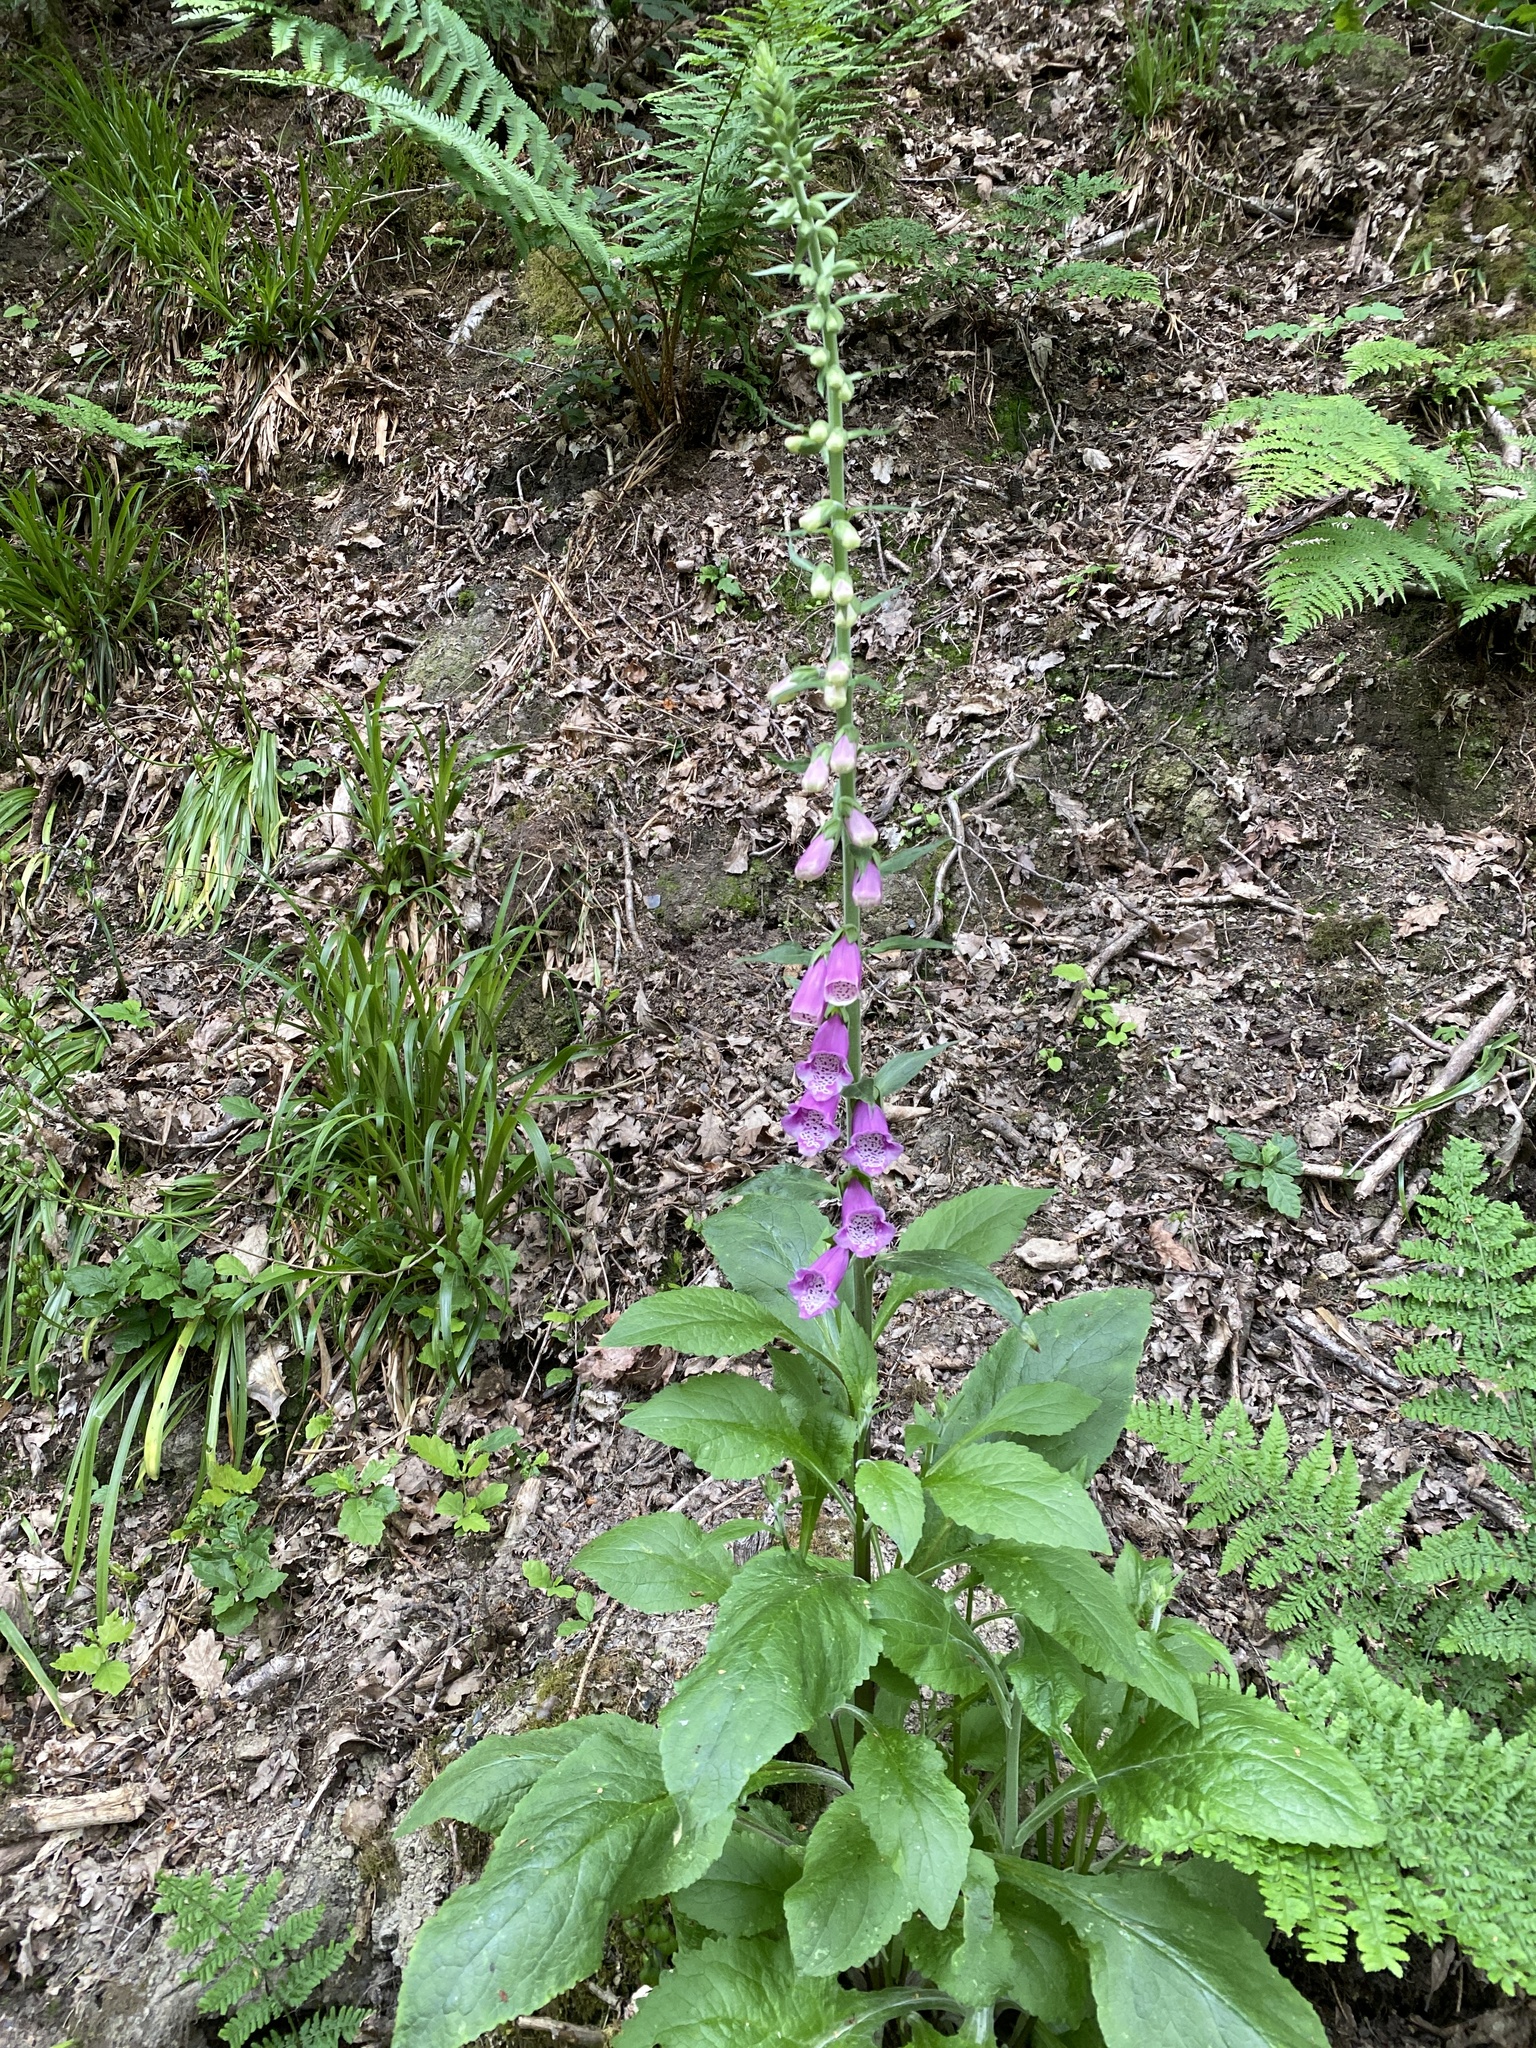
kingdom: Plantae
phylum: Tracheophyta
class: Magnoliopsida
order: Lamiales
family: Plantaginaceae
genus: Digitalis
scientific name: Digitalis purpurea
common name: Foxglove
